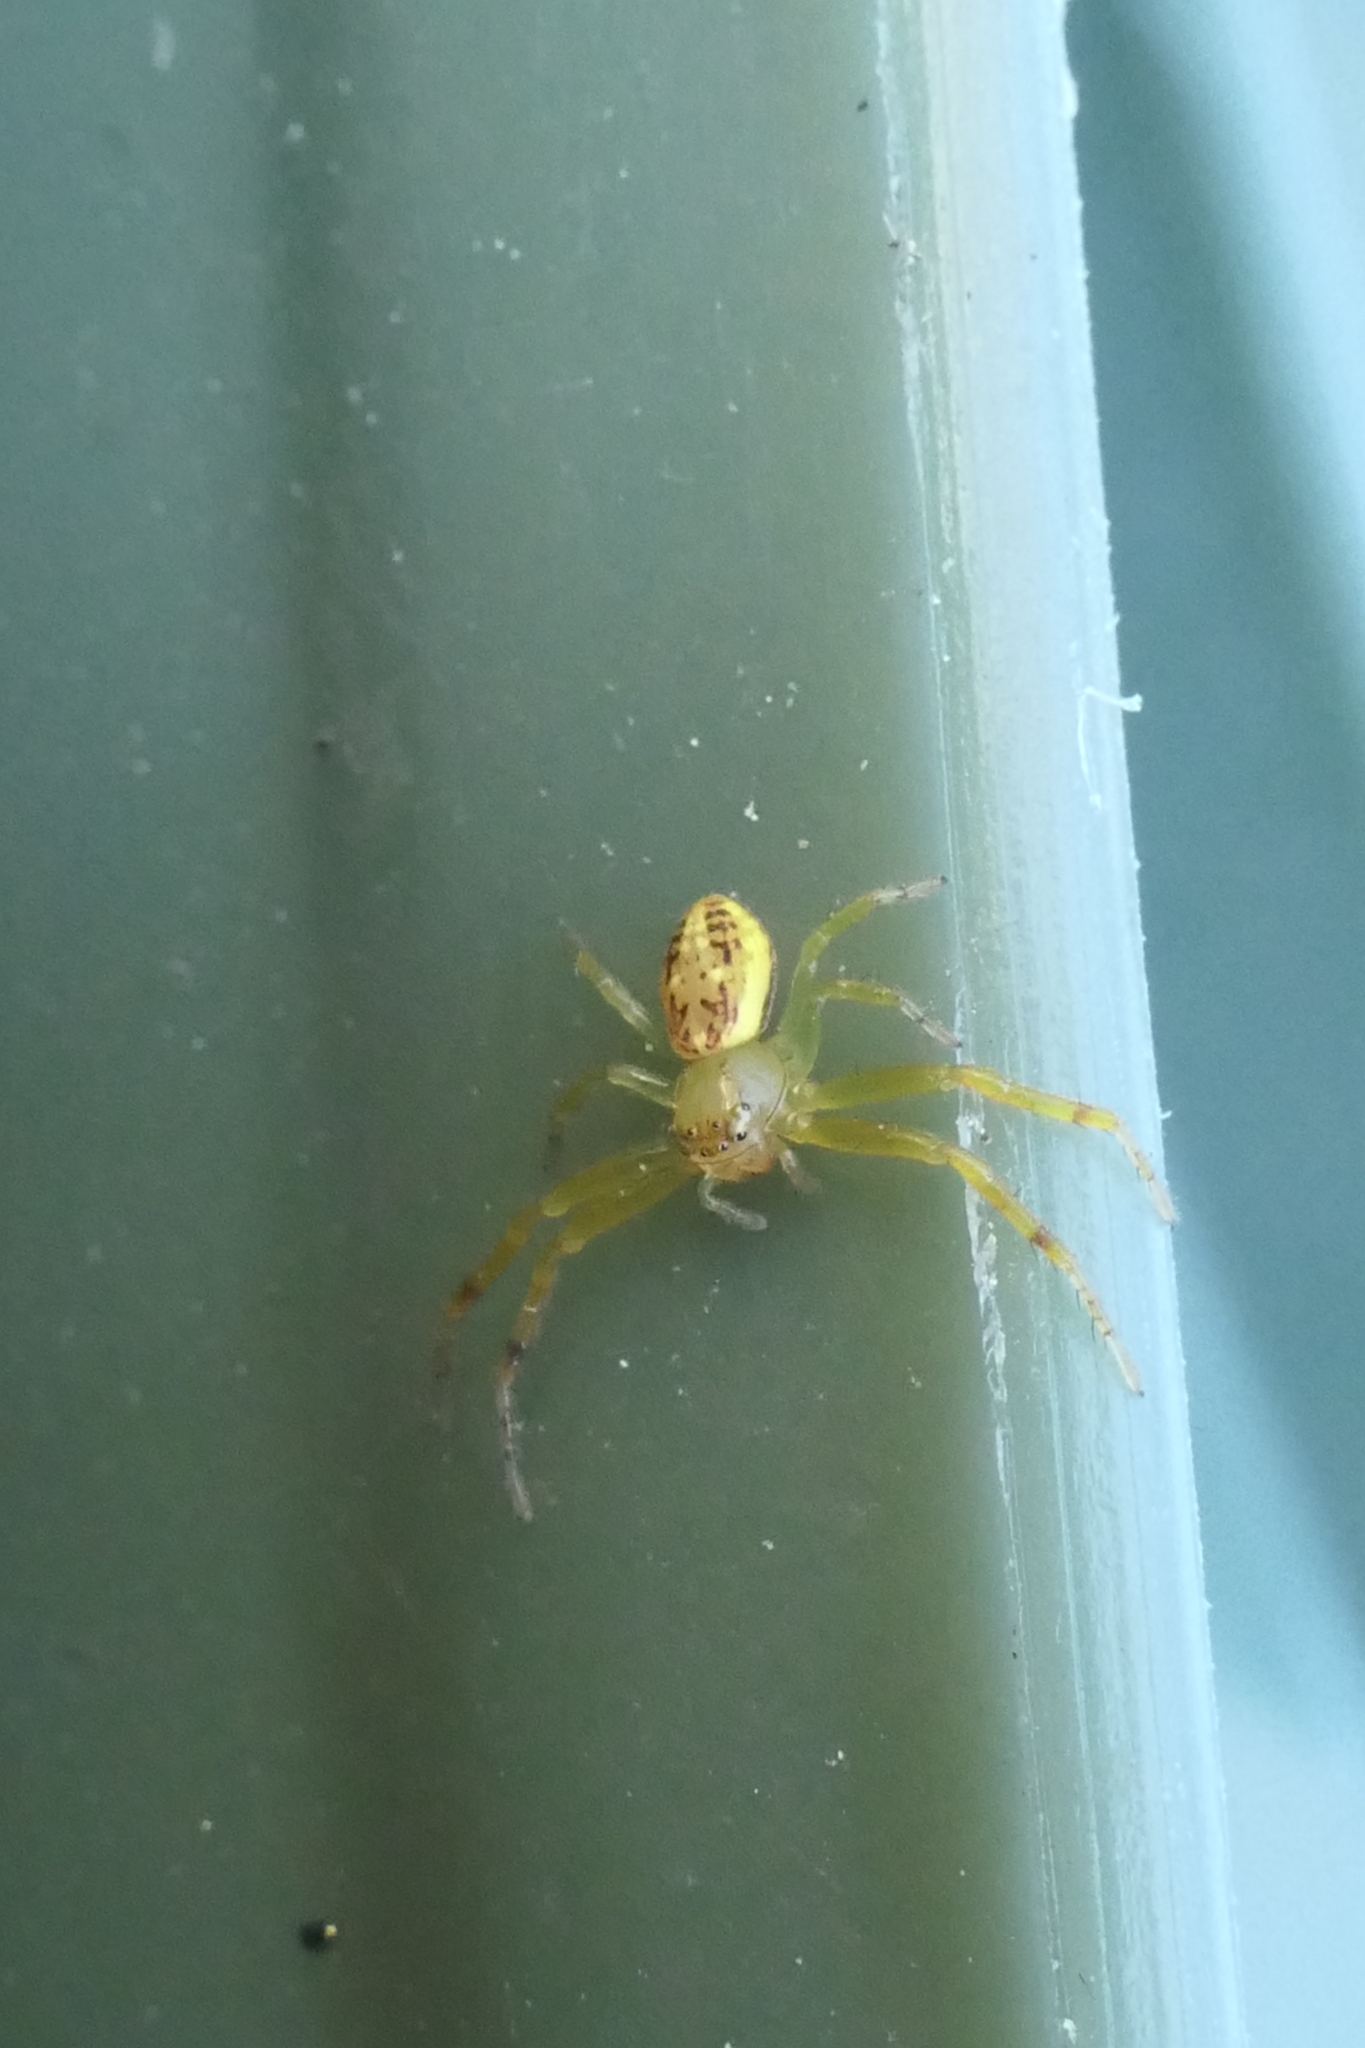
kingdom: Animalia
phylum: Arthropoda
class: Arachnida
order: Araneae
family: Thomisidae
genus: Diaea
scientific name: Diaea ambara
